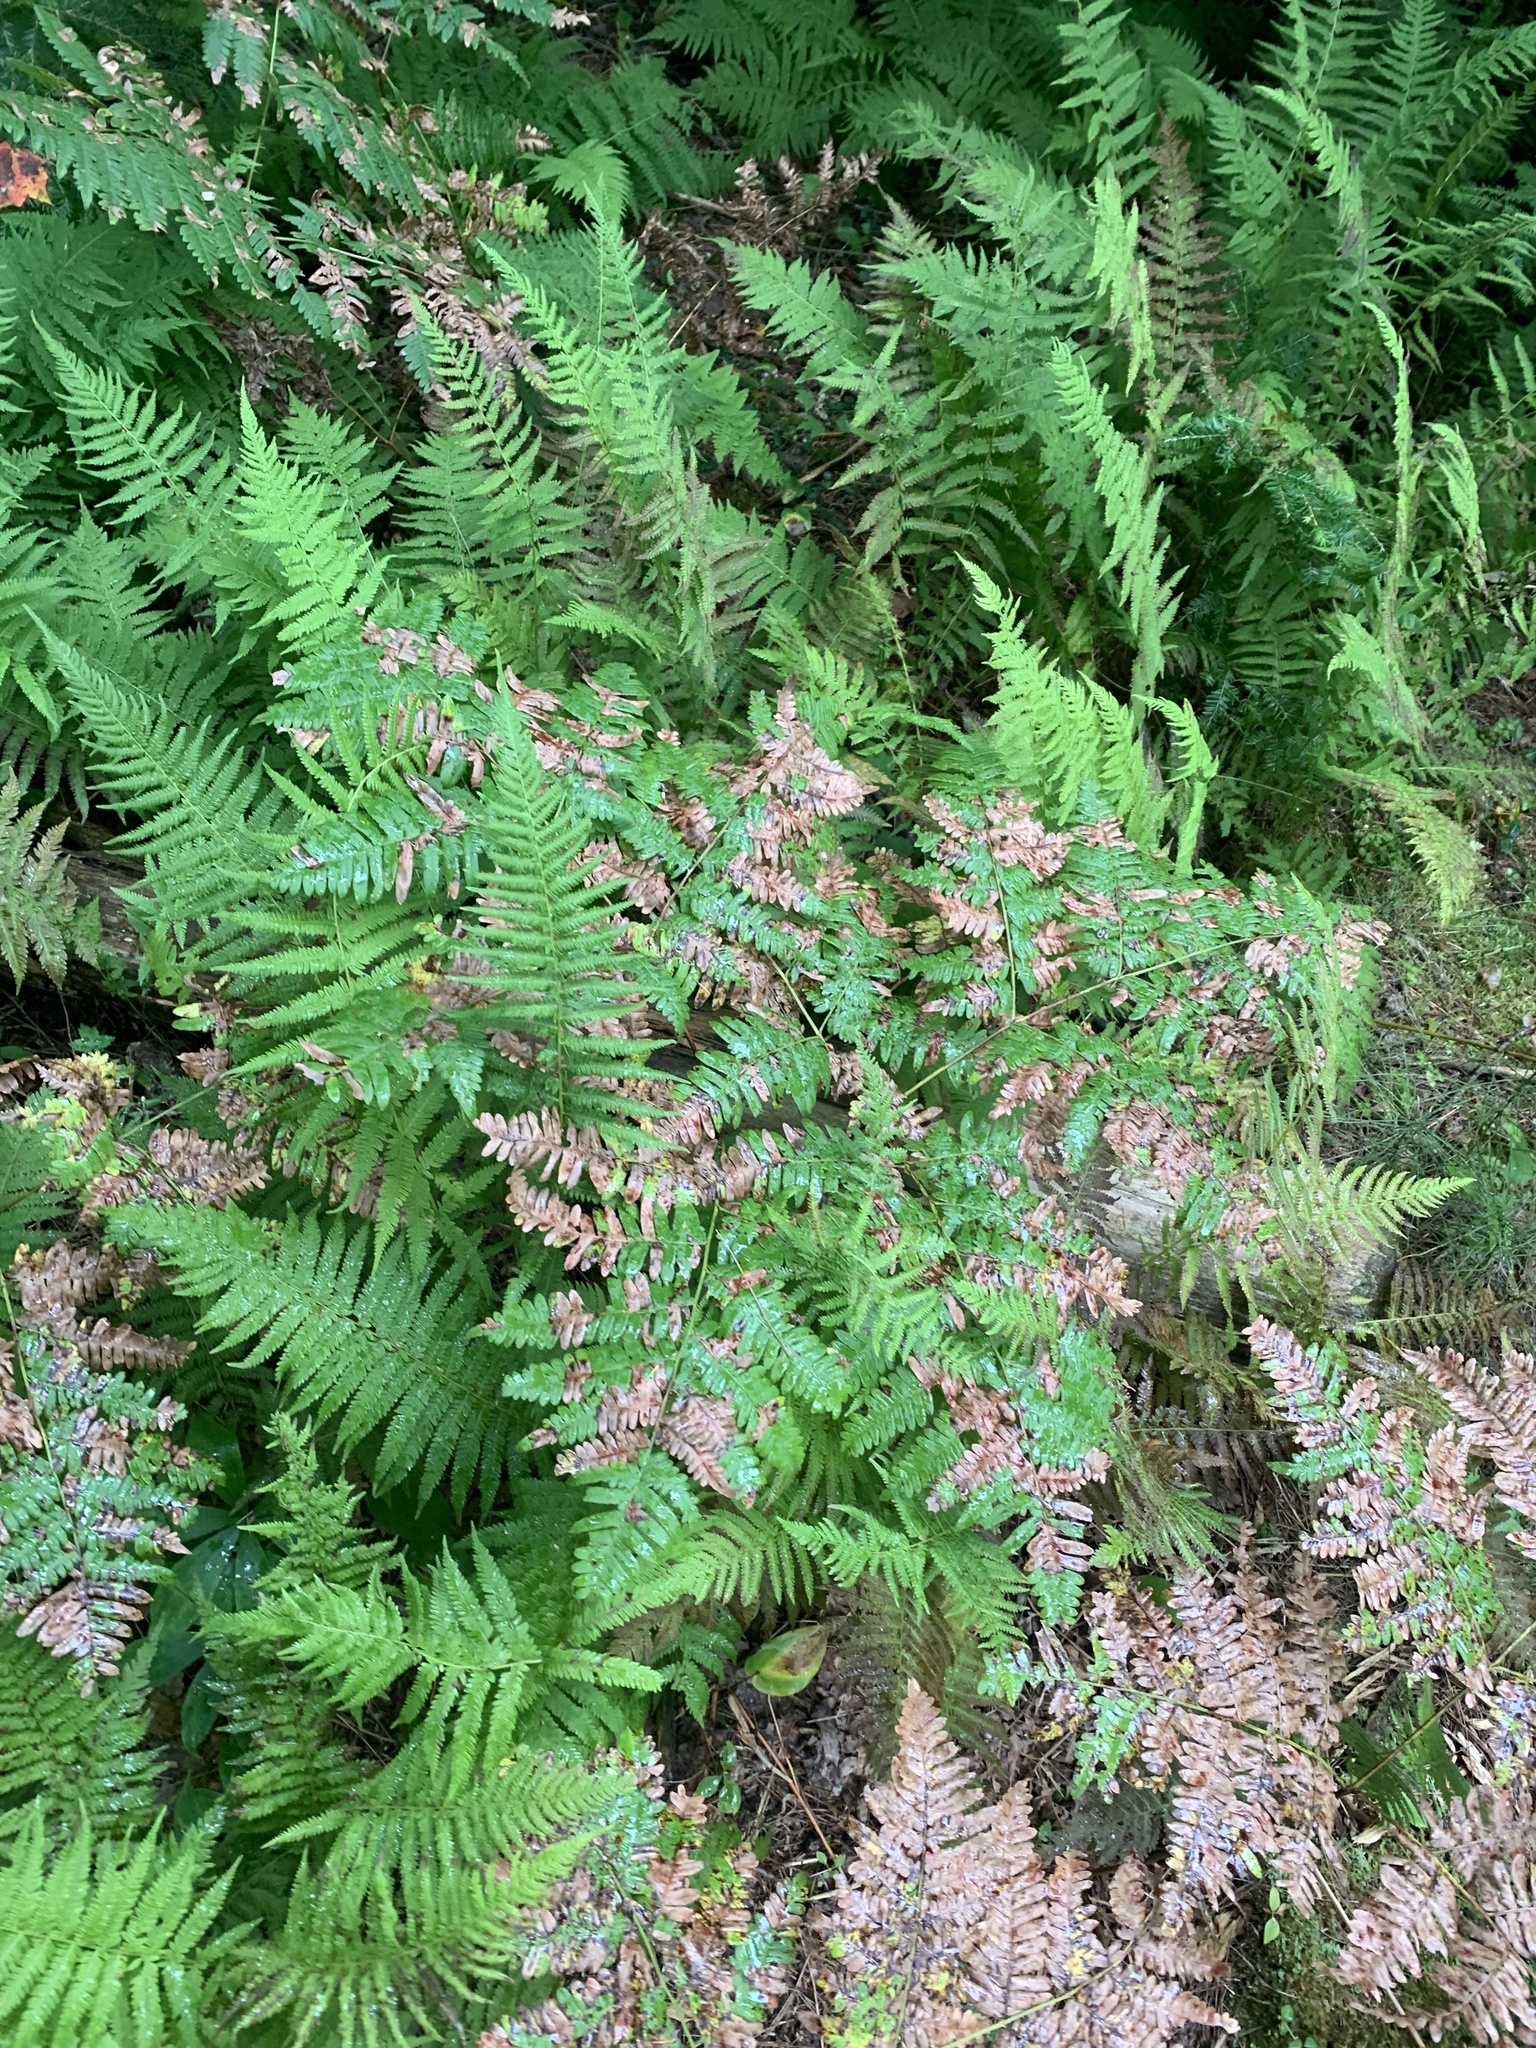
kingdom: Plantae
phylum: Tracheophyta
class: Polypodiopsida
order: Polypodiales
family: Dennstaedtiaceae
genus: Pteridium
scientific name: Pteridium aquilinum
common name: Bracken
